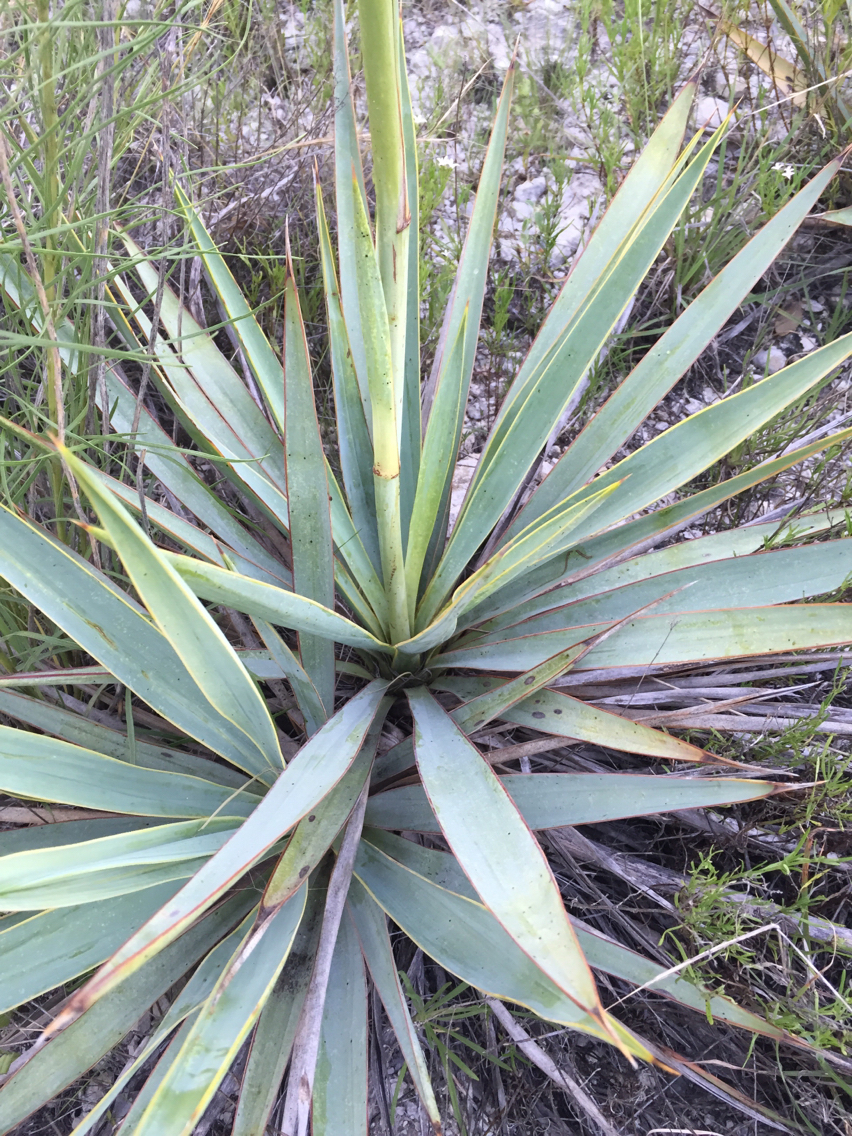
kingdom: Plantae
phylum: Tracheophyta
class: Liliopsida
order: Asparagales
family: Asparagaceae
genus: Yucca
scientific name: Yucca pallida
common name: Pale leaf yucca
